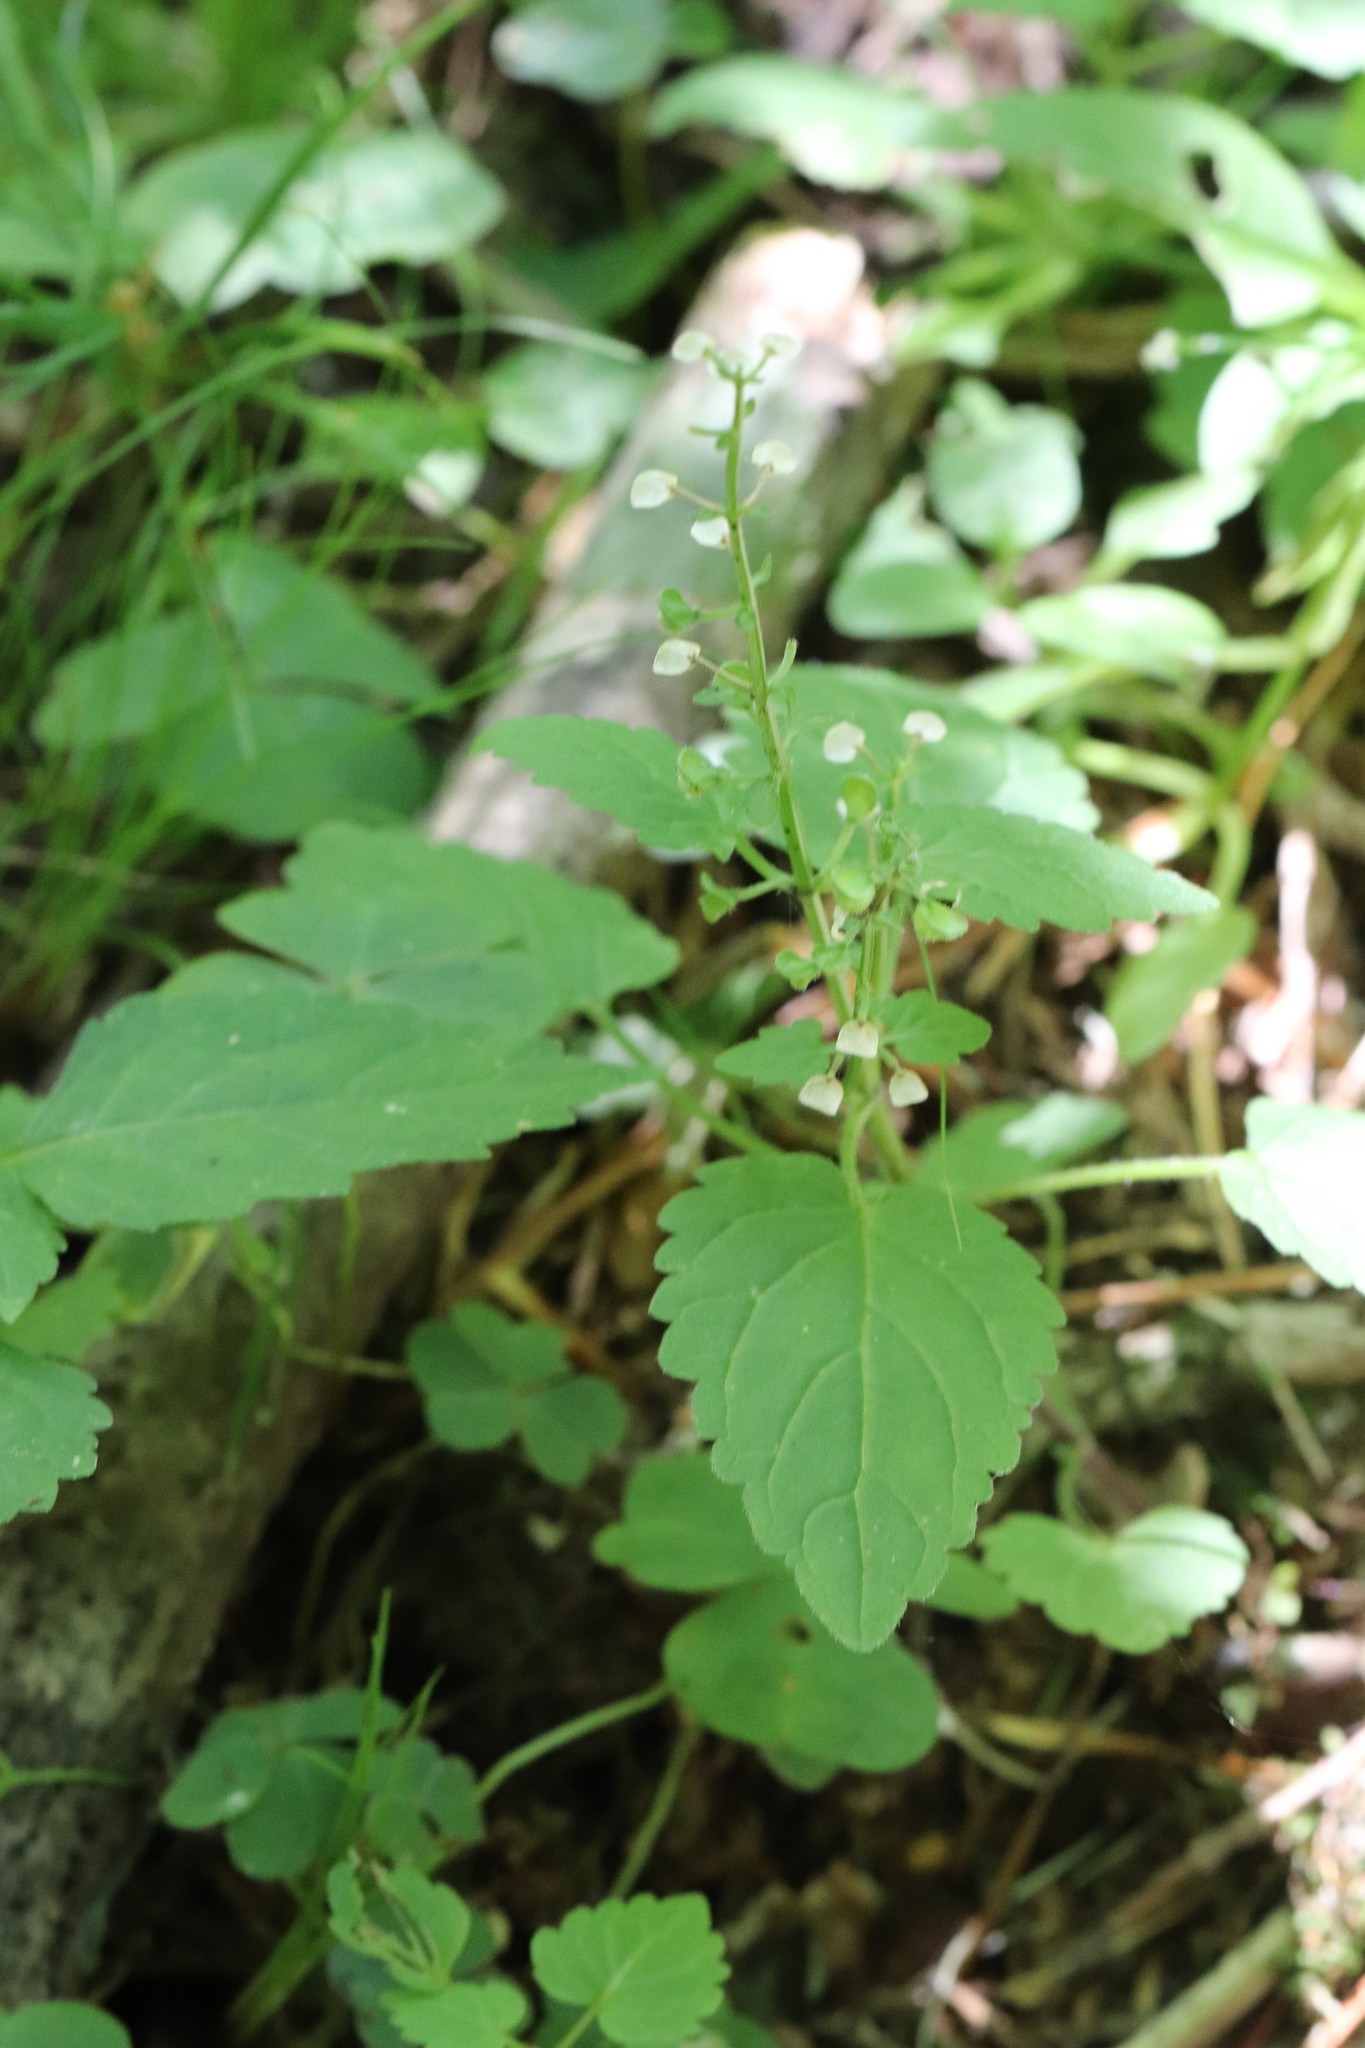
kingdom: Plantae
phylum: Tracheophyta
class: Magnoliopsida
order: Lamiales
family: Lamiaceae
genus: Scutellaria
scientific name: Scutellaria pekinensis
